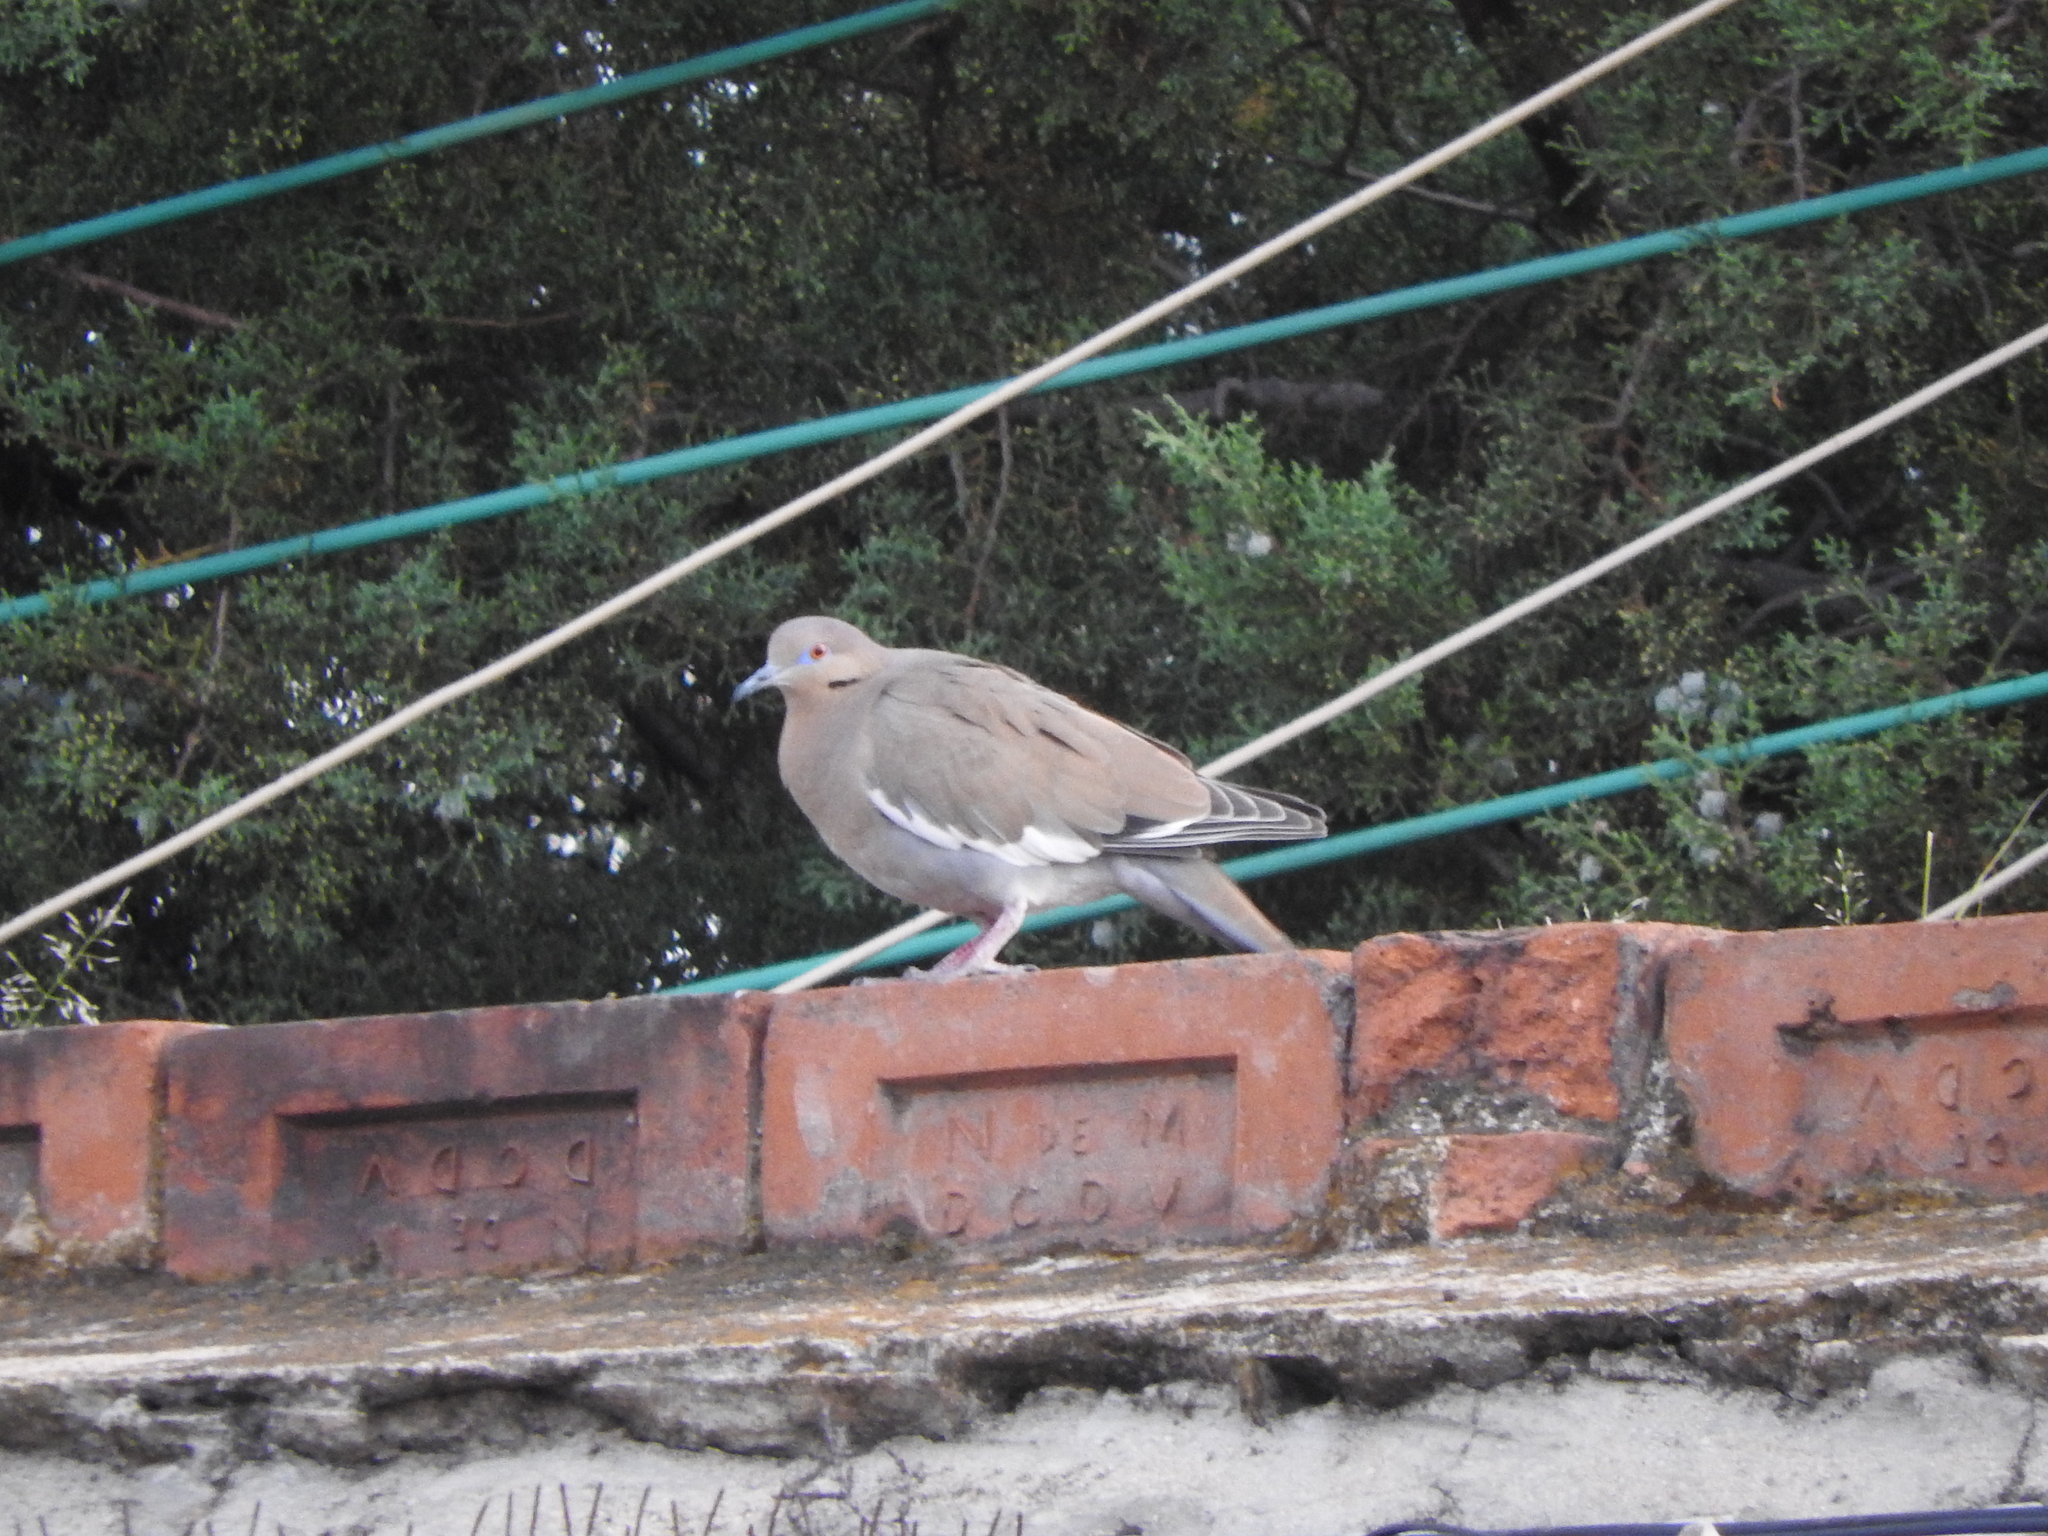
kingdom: Animalia
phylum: Chordata
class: Aves
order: Columbiformes
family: Columbidae
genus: Zenaida
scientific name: Zenaida asiatica
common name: White-winged dove
